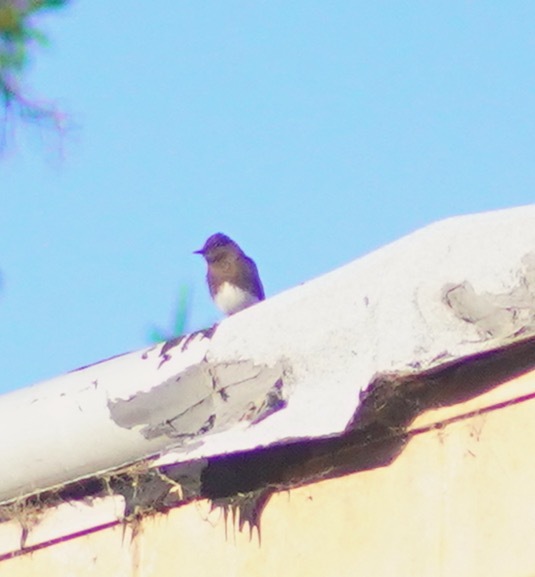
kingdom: Animalia
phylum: Chordata
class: Aves
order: Passeriformes
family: Tyrannidae
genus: Sayornis
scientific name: Sayornis nigricans
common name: Black phoebe
